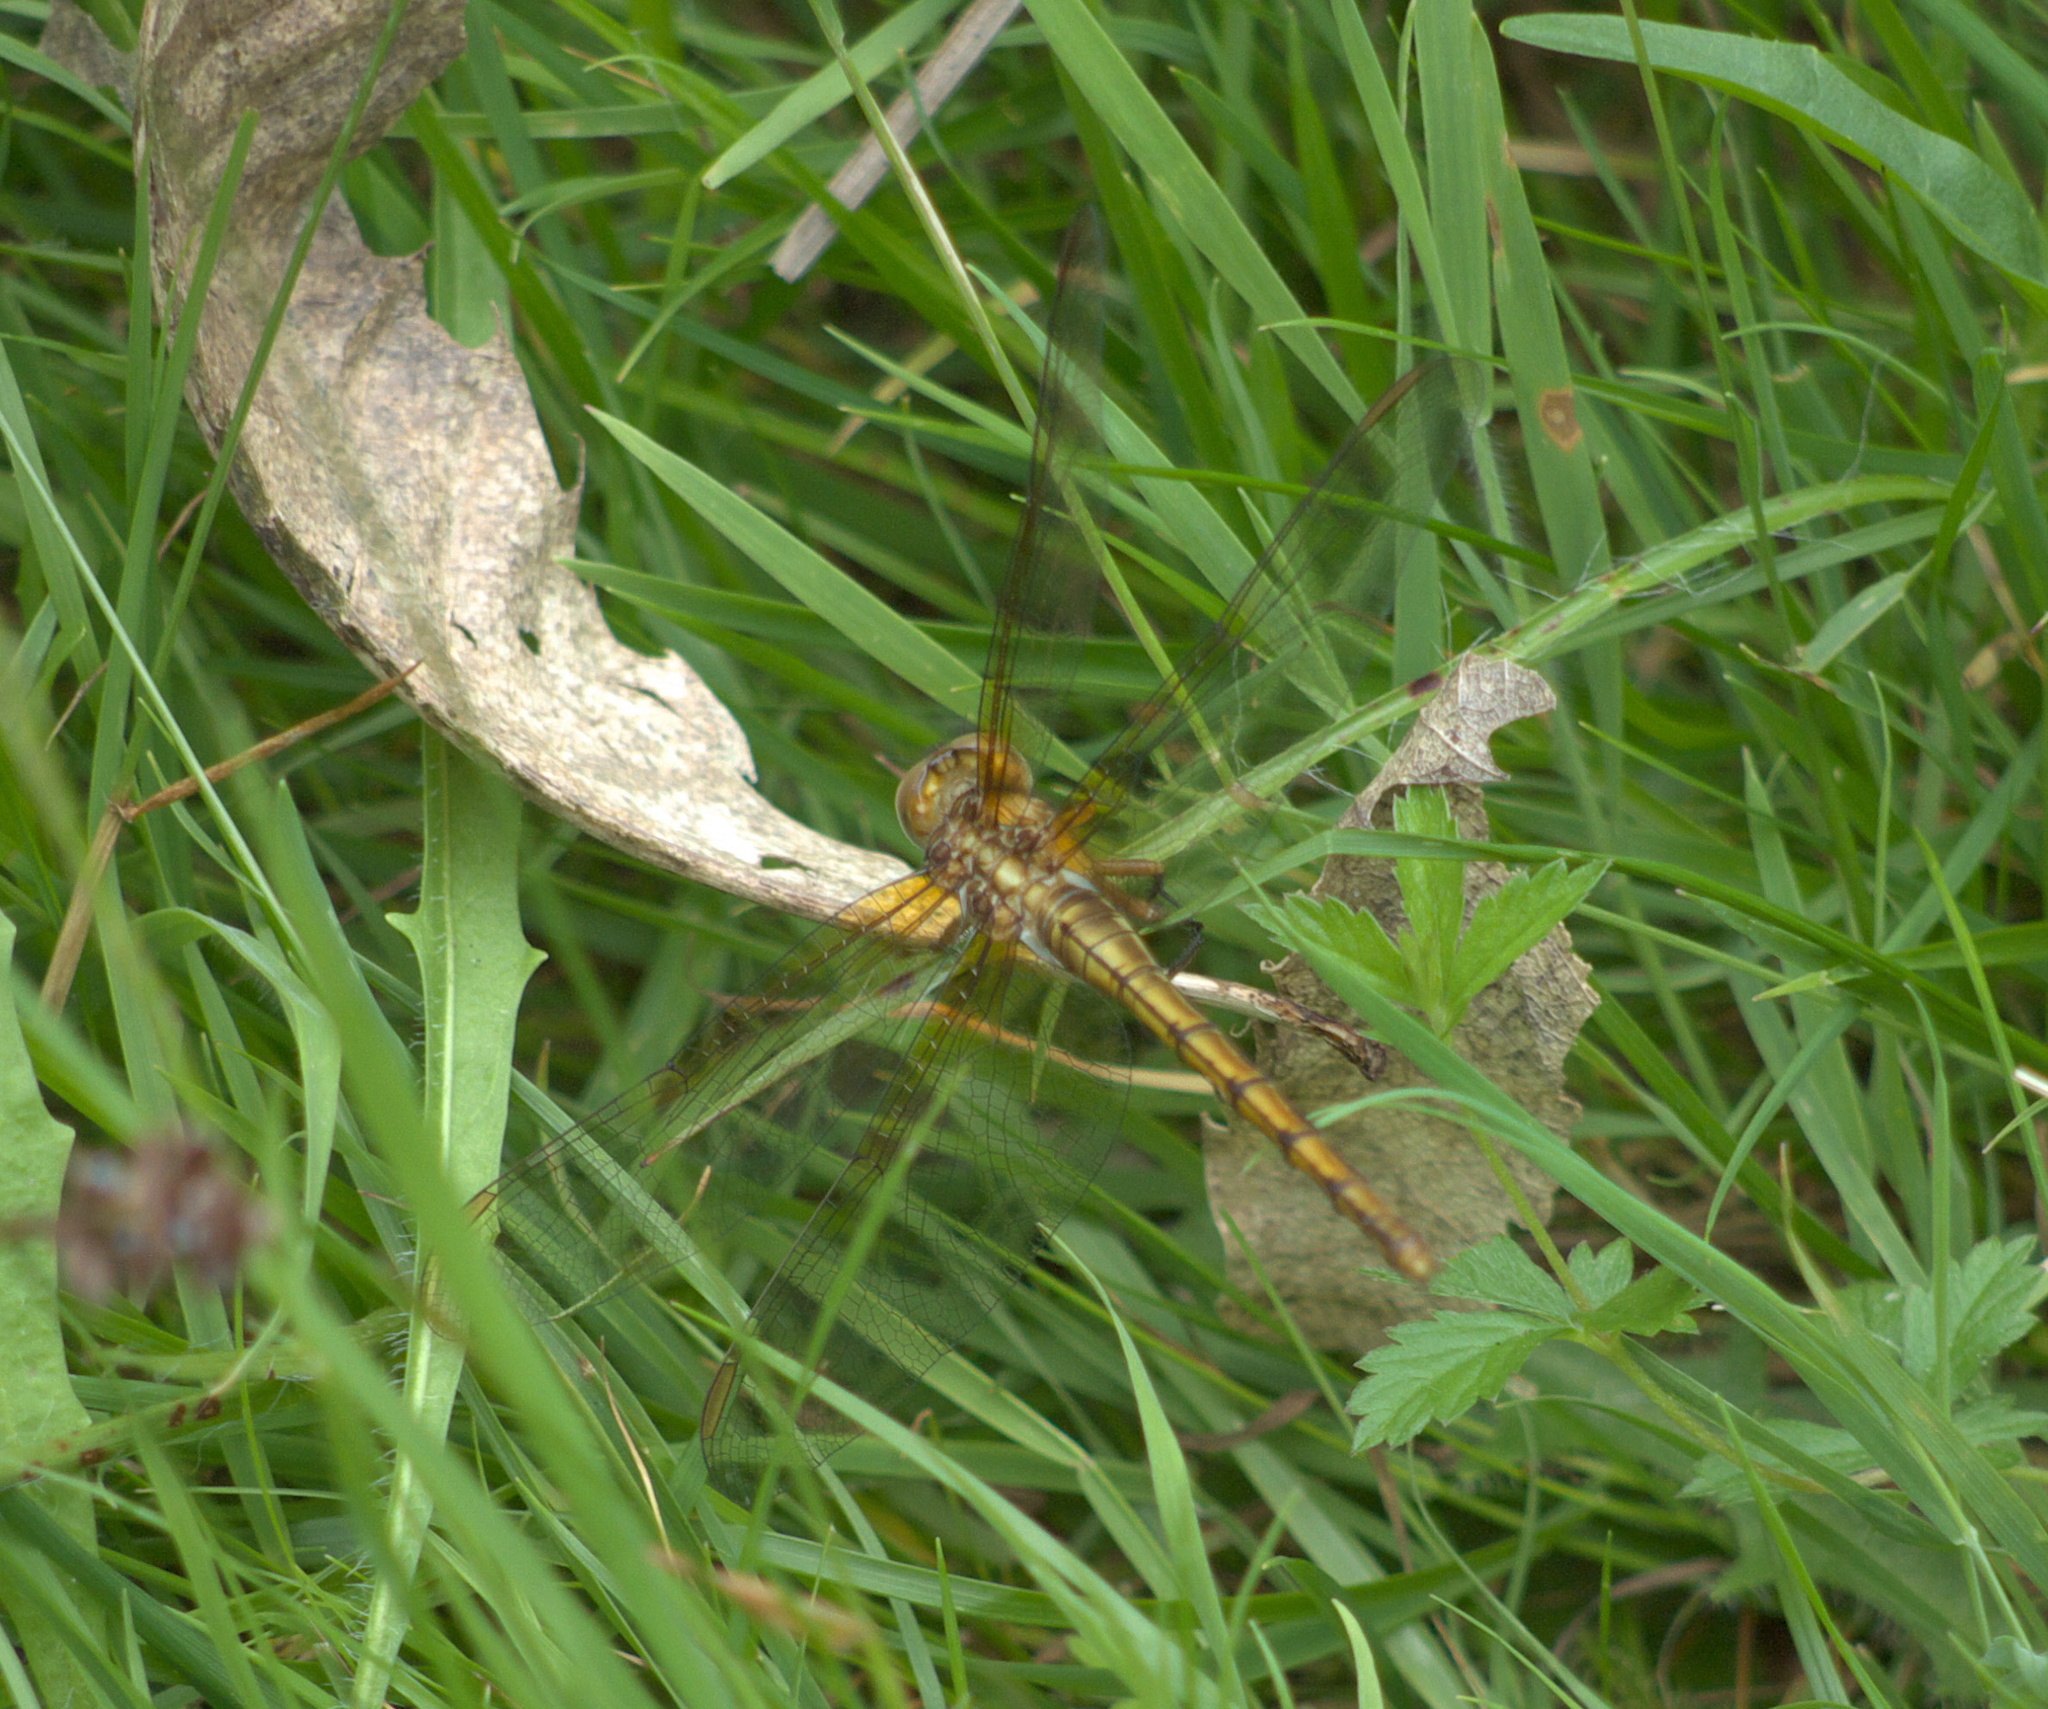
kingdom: Animalia
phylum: Arthropoda
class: Insecta
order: Odonata
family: Libellulidae
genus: Orthetrum
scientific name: Orthetrum coerulescens
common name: Keeled skimmer
